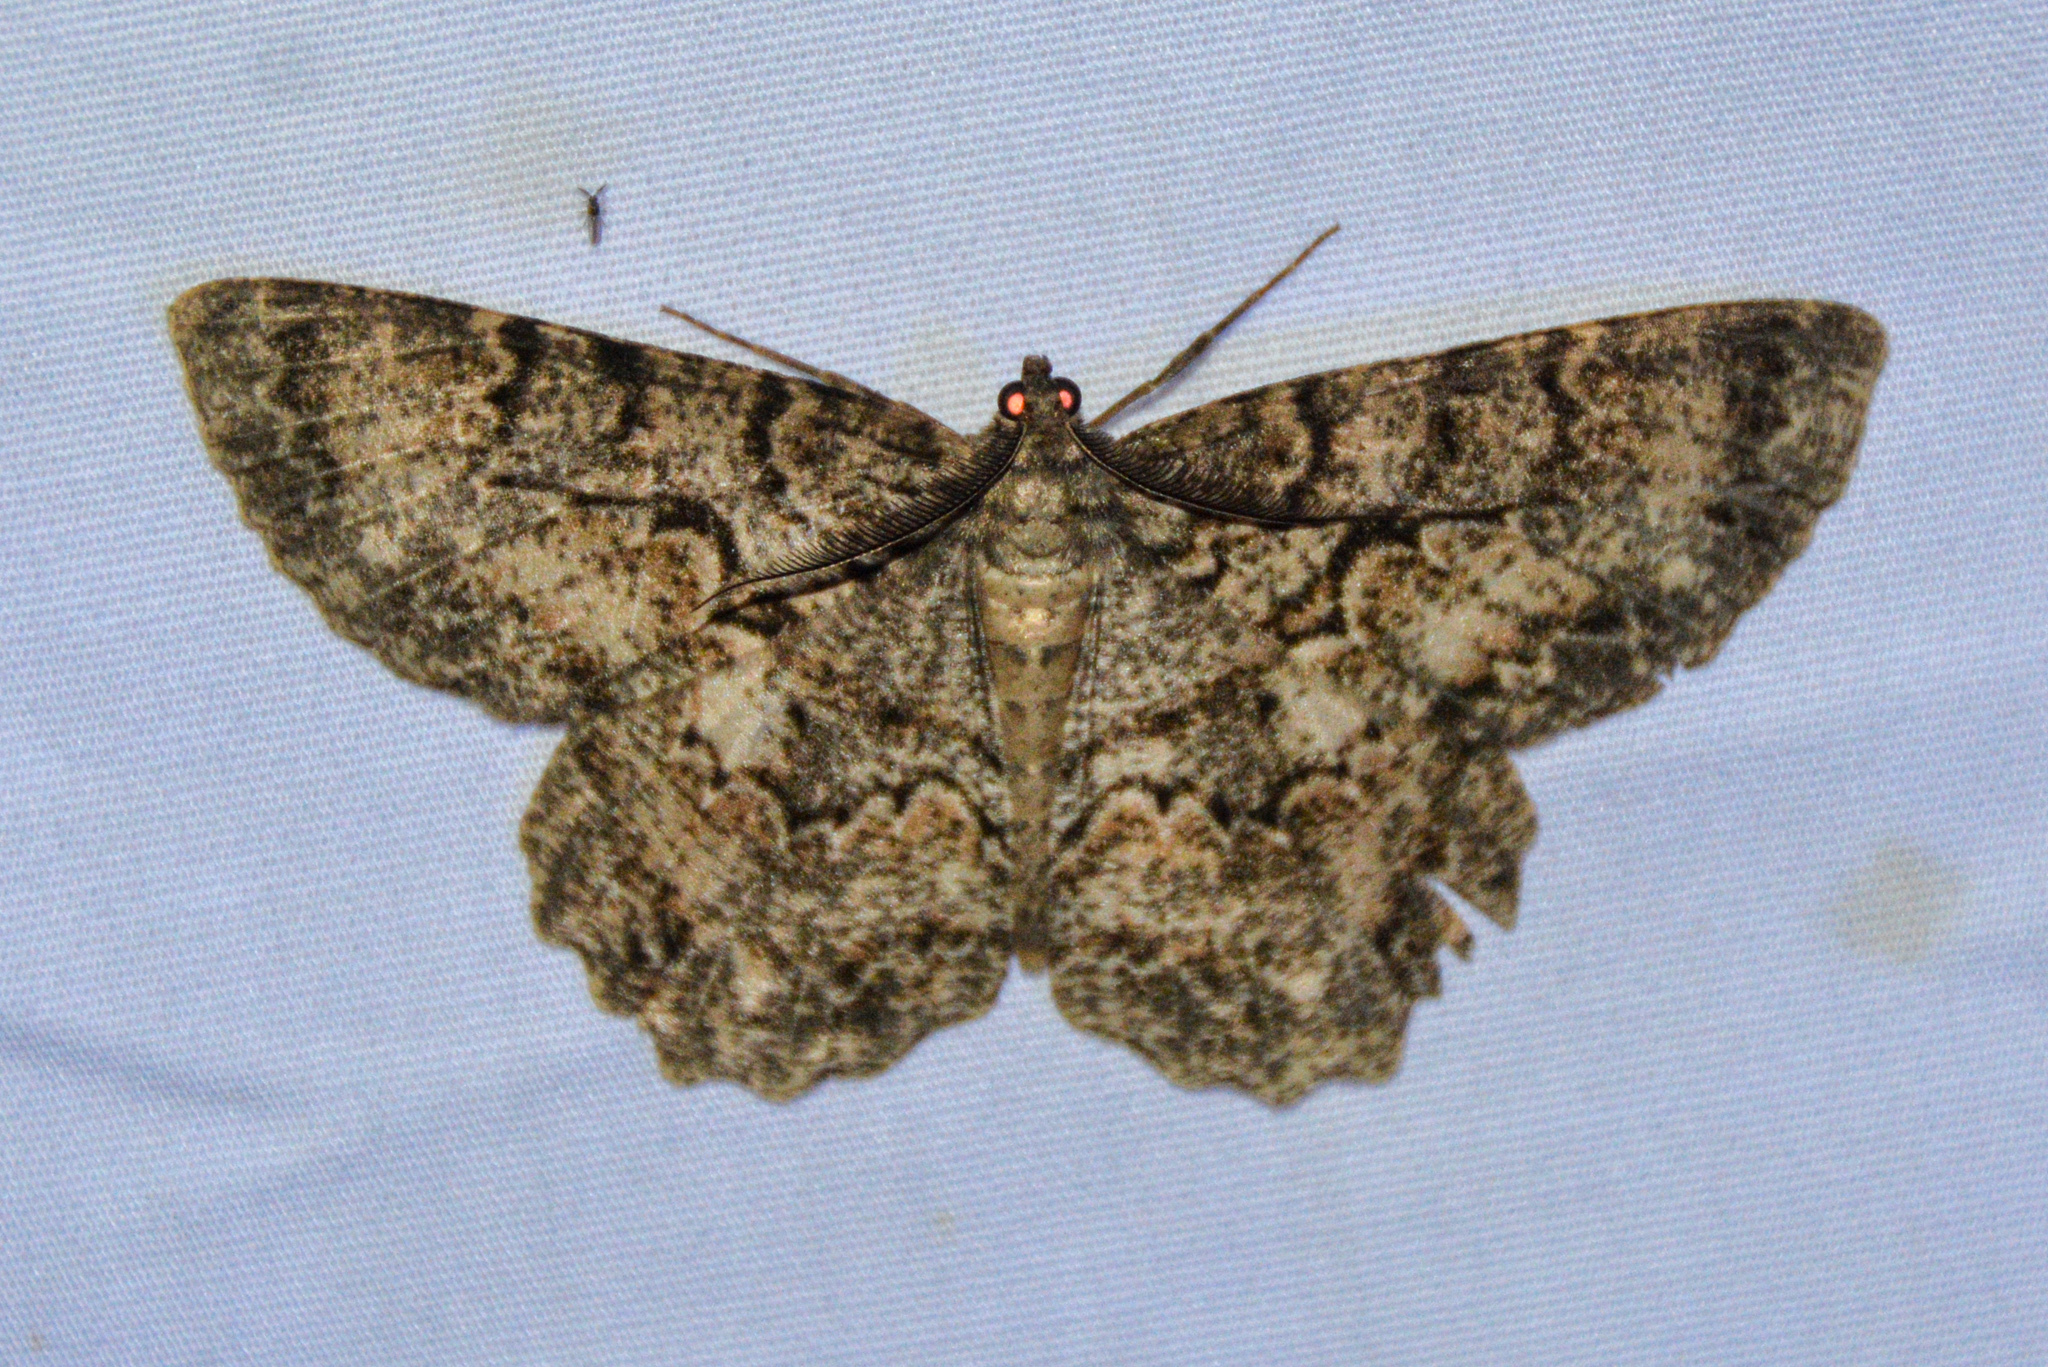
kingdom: Animalia
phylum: Arthropoda
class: Insecta
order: Lepidoptera
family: Geometridae
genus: Epimecis
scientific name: Epimecis hortaria
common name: Tulip-tree beauty
